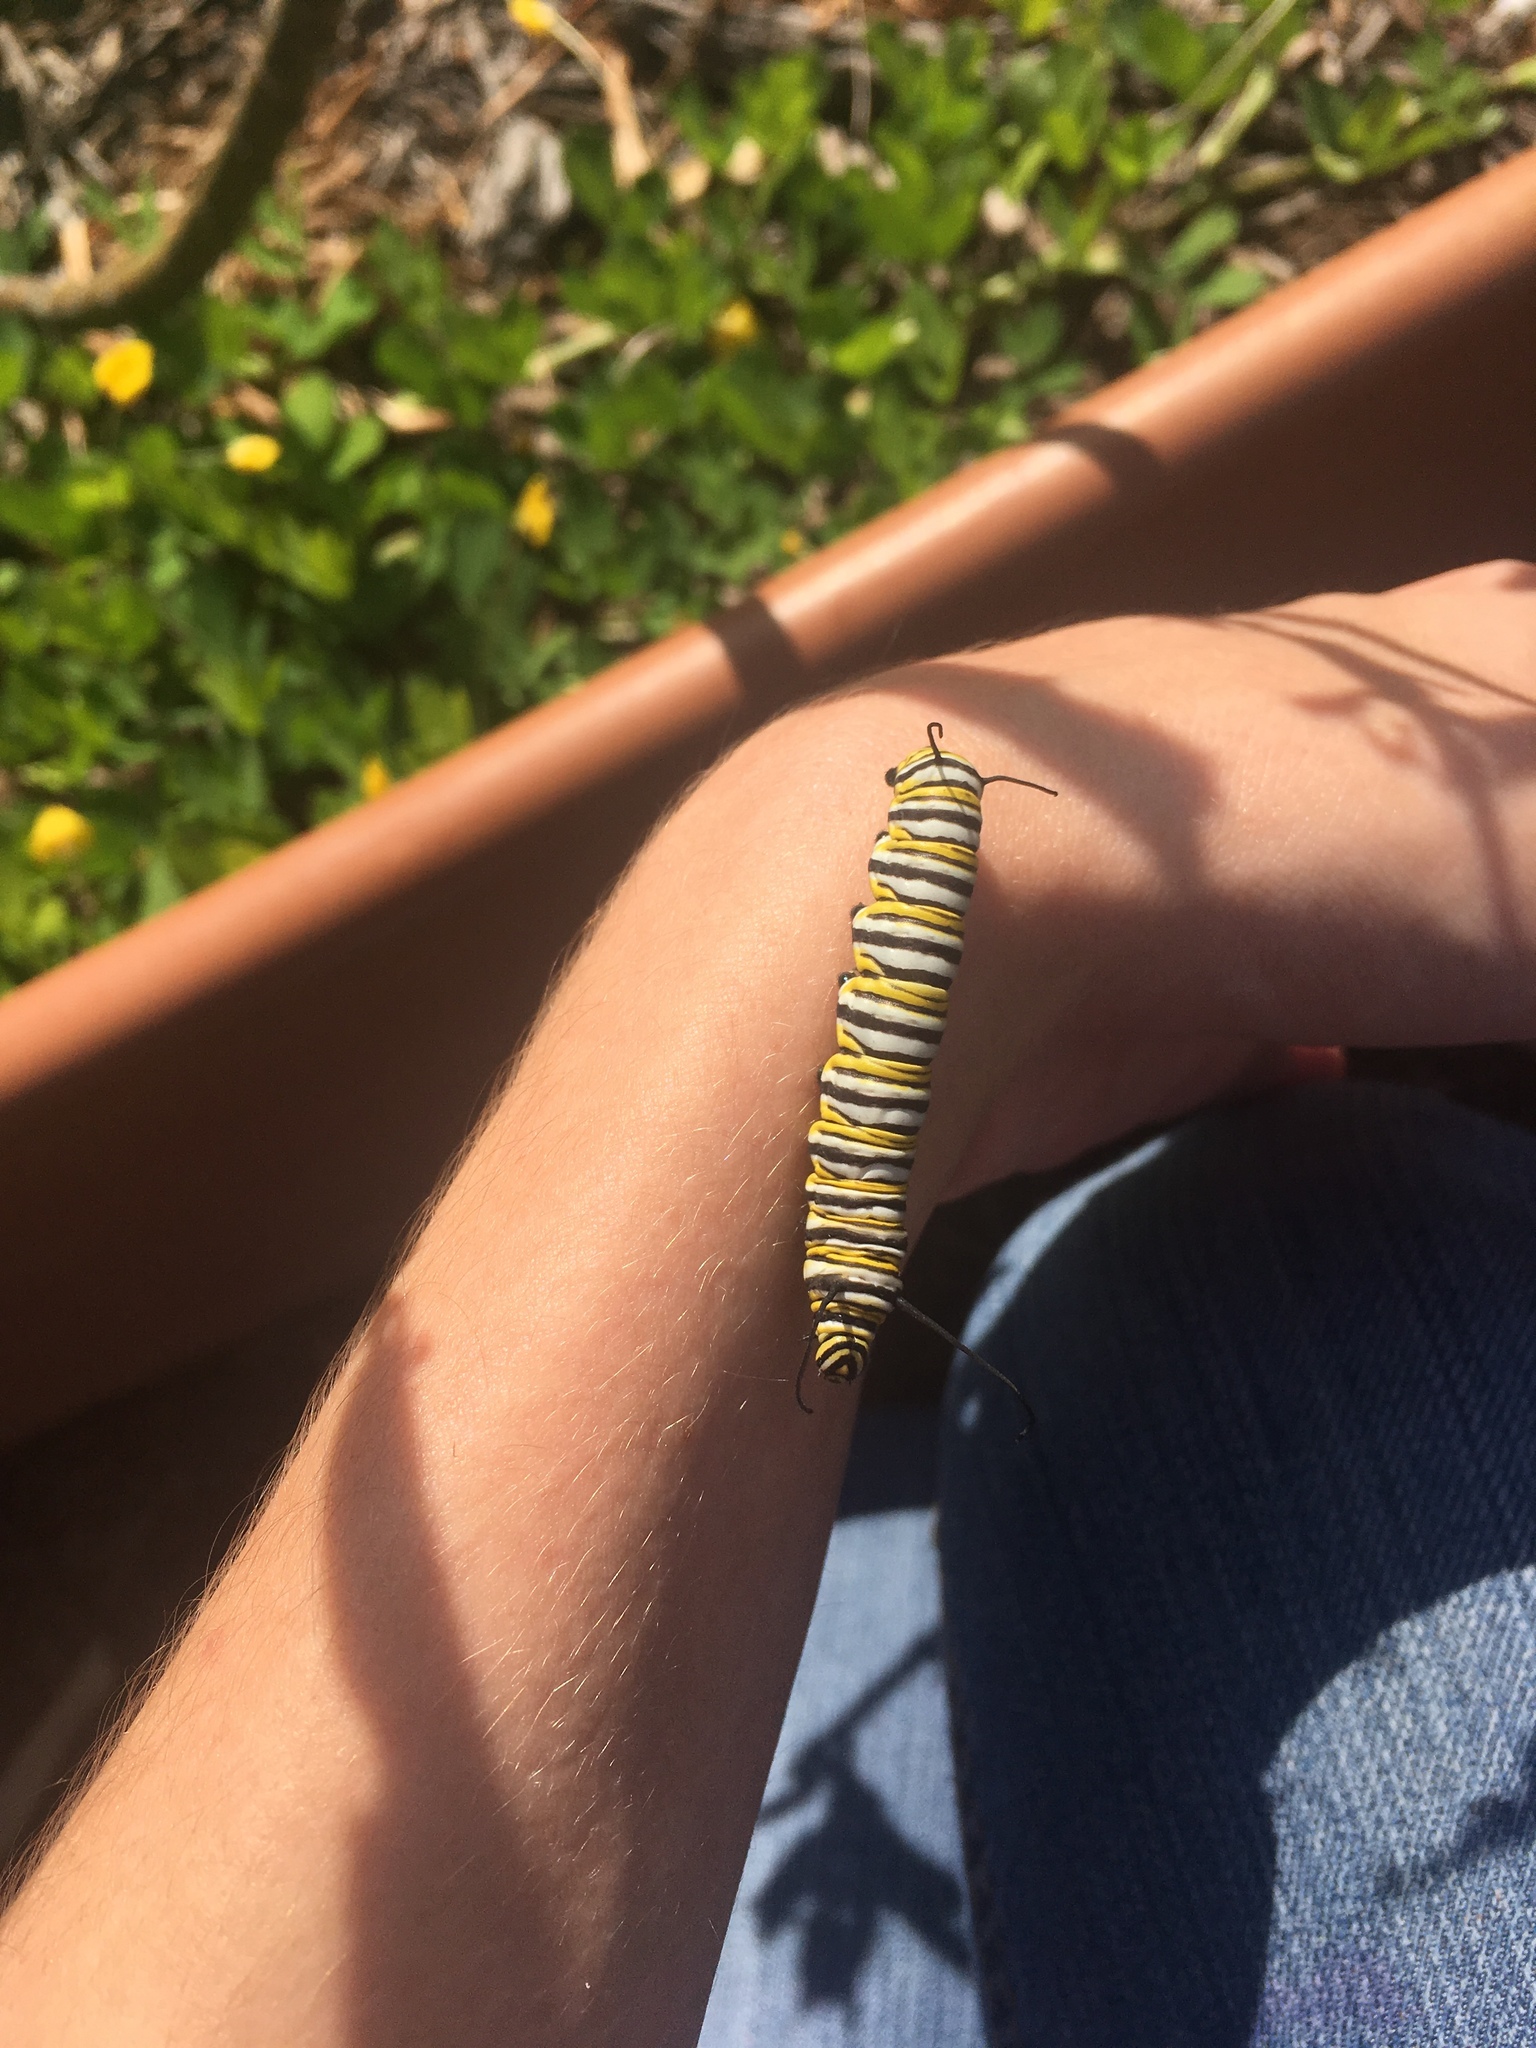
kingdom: Animalia
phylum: Arthropoda
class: Insecta
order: Lepidoptera
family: Nymphalidae
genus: Danaus
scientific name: Danaus plexippus
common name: Monarch
